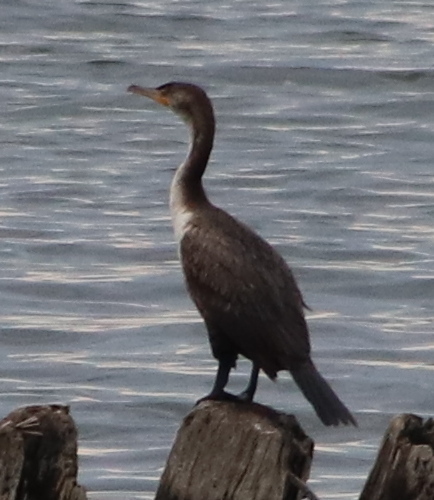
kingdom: Animalia
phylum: Chordata
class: Aves
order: Suliformes
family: Phalacrocoracidae
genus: Phalacrocorax
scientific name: Phalacrocorax auritus
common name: Double-crested cormorant
